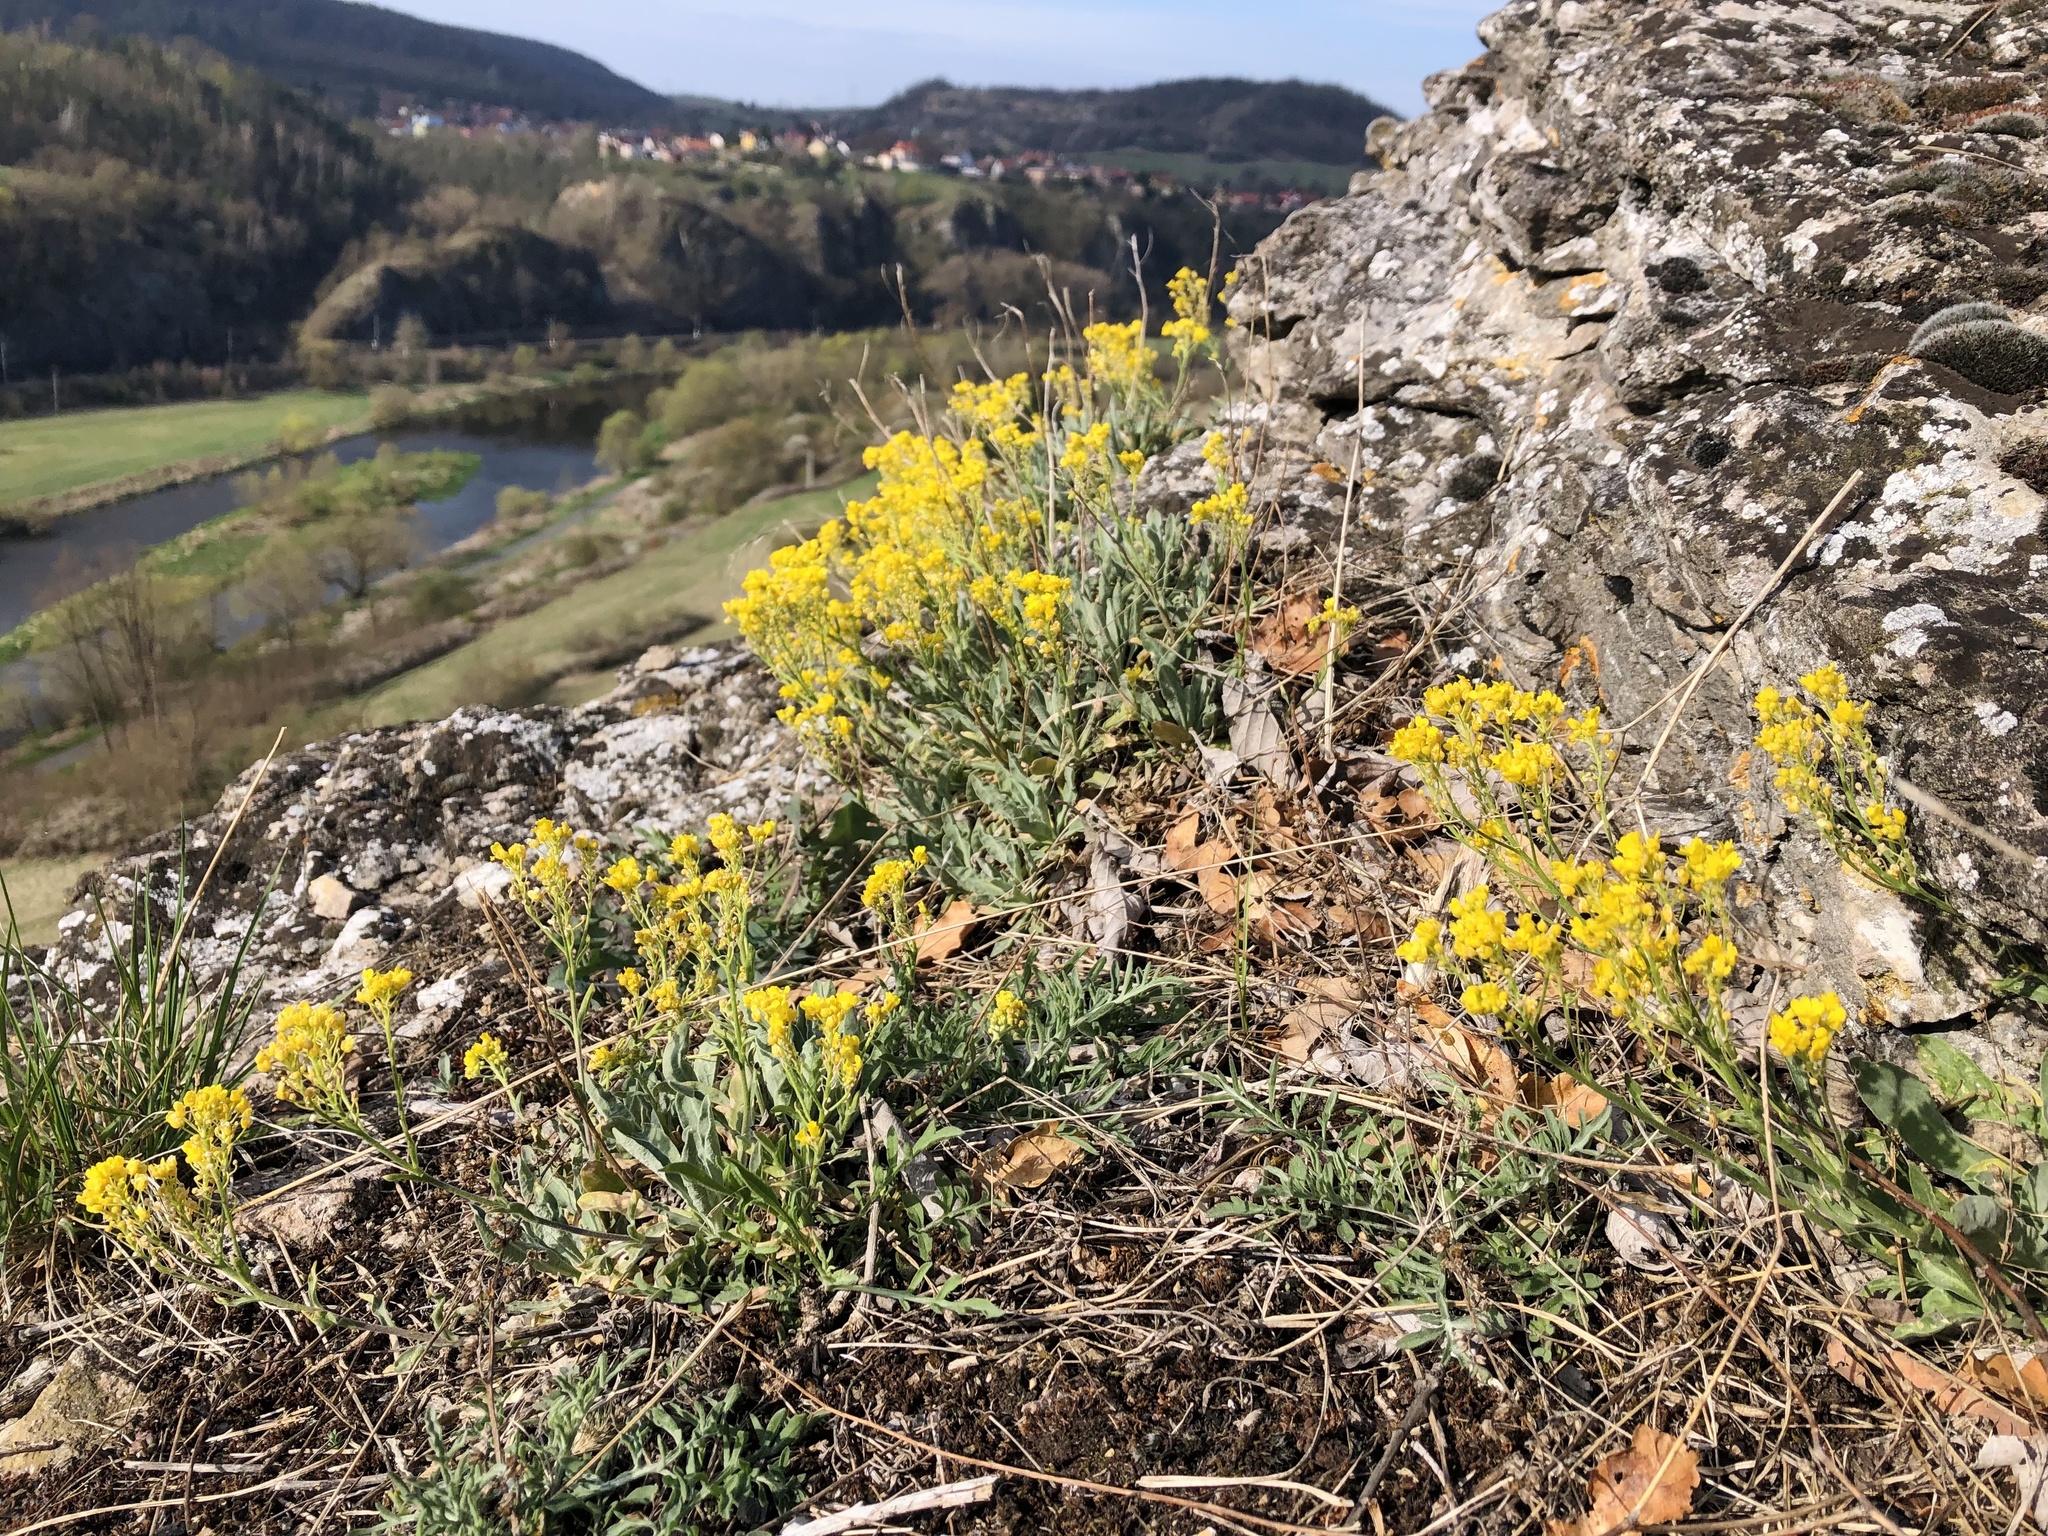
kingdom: Plantae
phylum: Tracheophyta
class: Magnoliopsida
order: Brassicales
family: Brassicaceae
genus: Aurinia
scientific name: Aurinia saxatilis
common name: Golden-tuft alyssum
